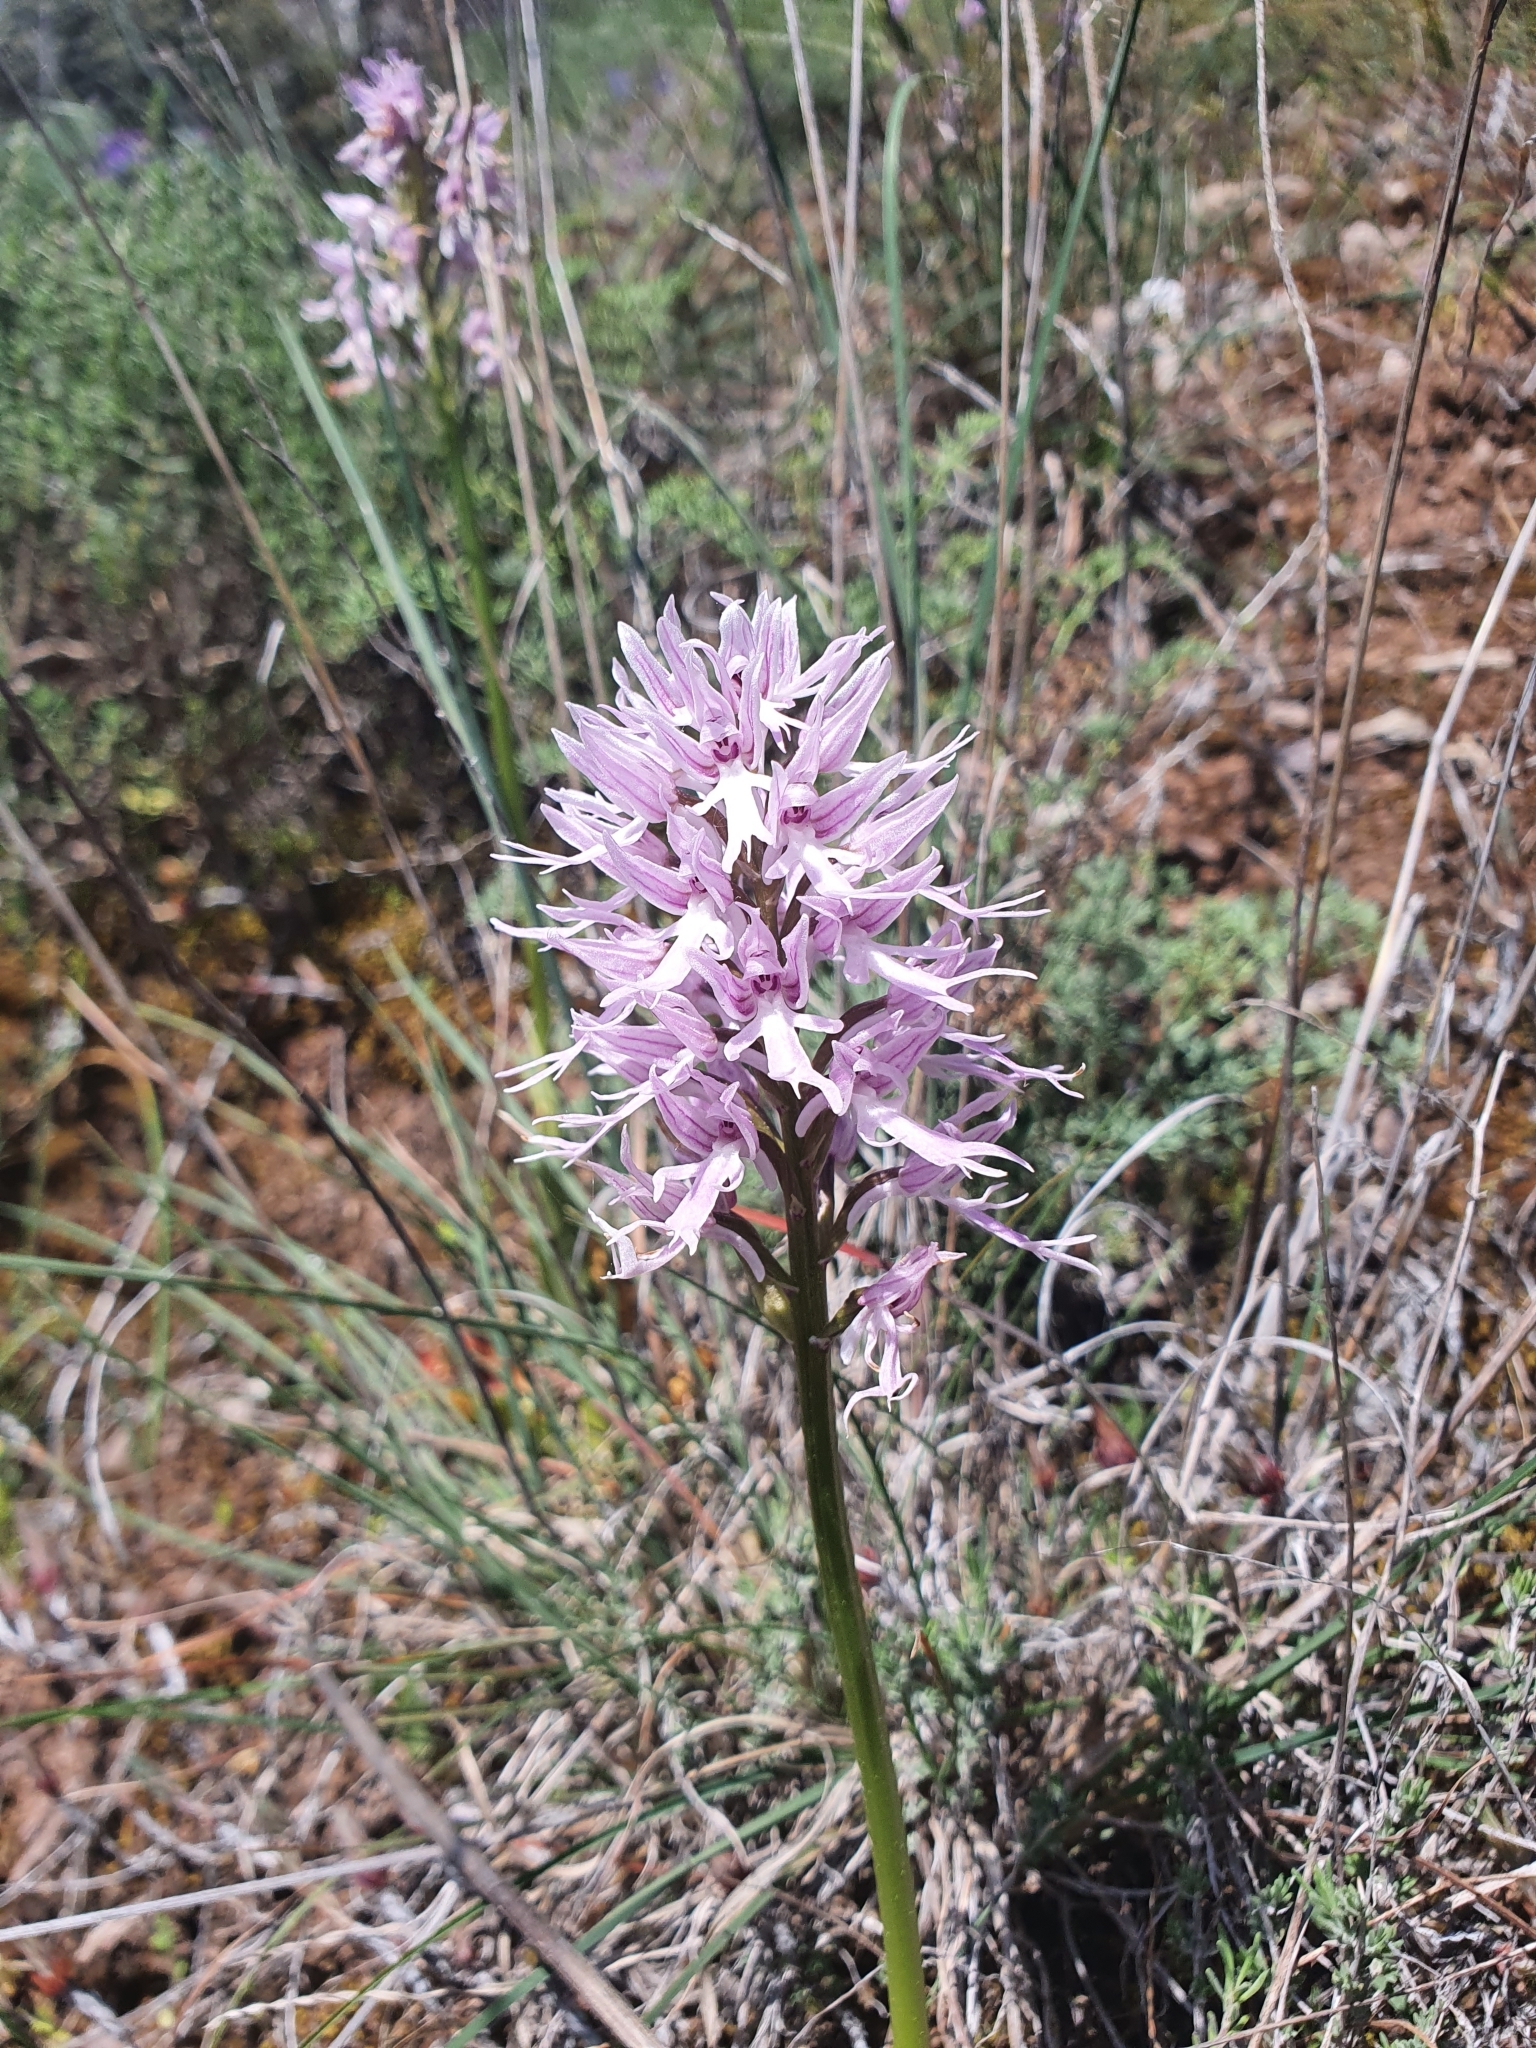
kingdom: Plantae
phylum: Tracheophyta
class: Liliopsida
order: Asparagales
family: Orchidaceae
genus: Orchis
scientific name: Orchis italica
